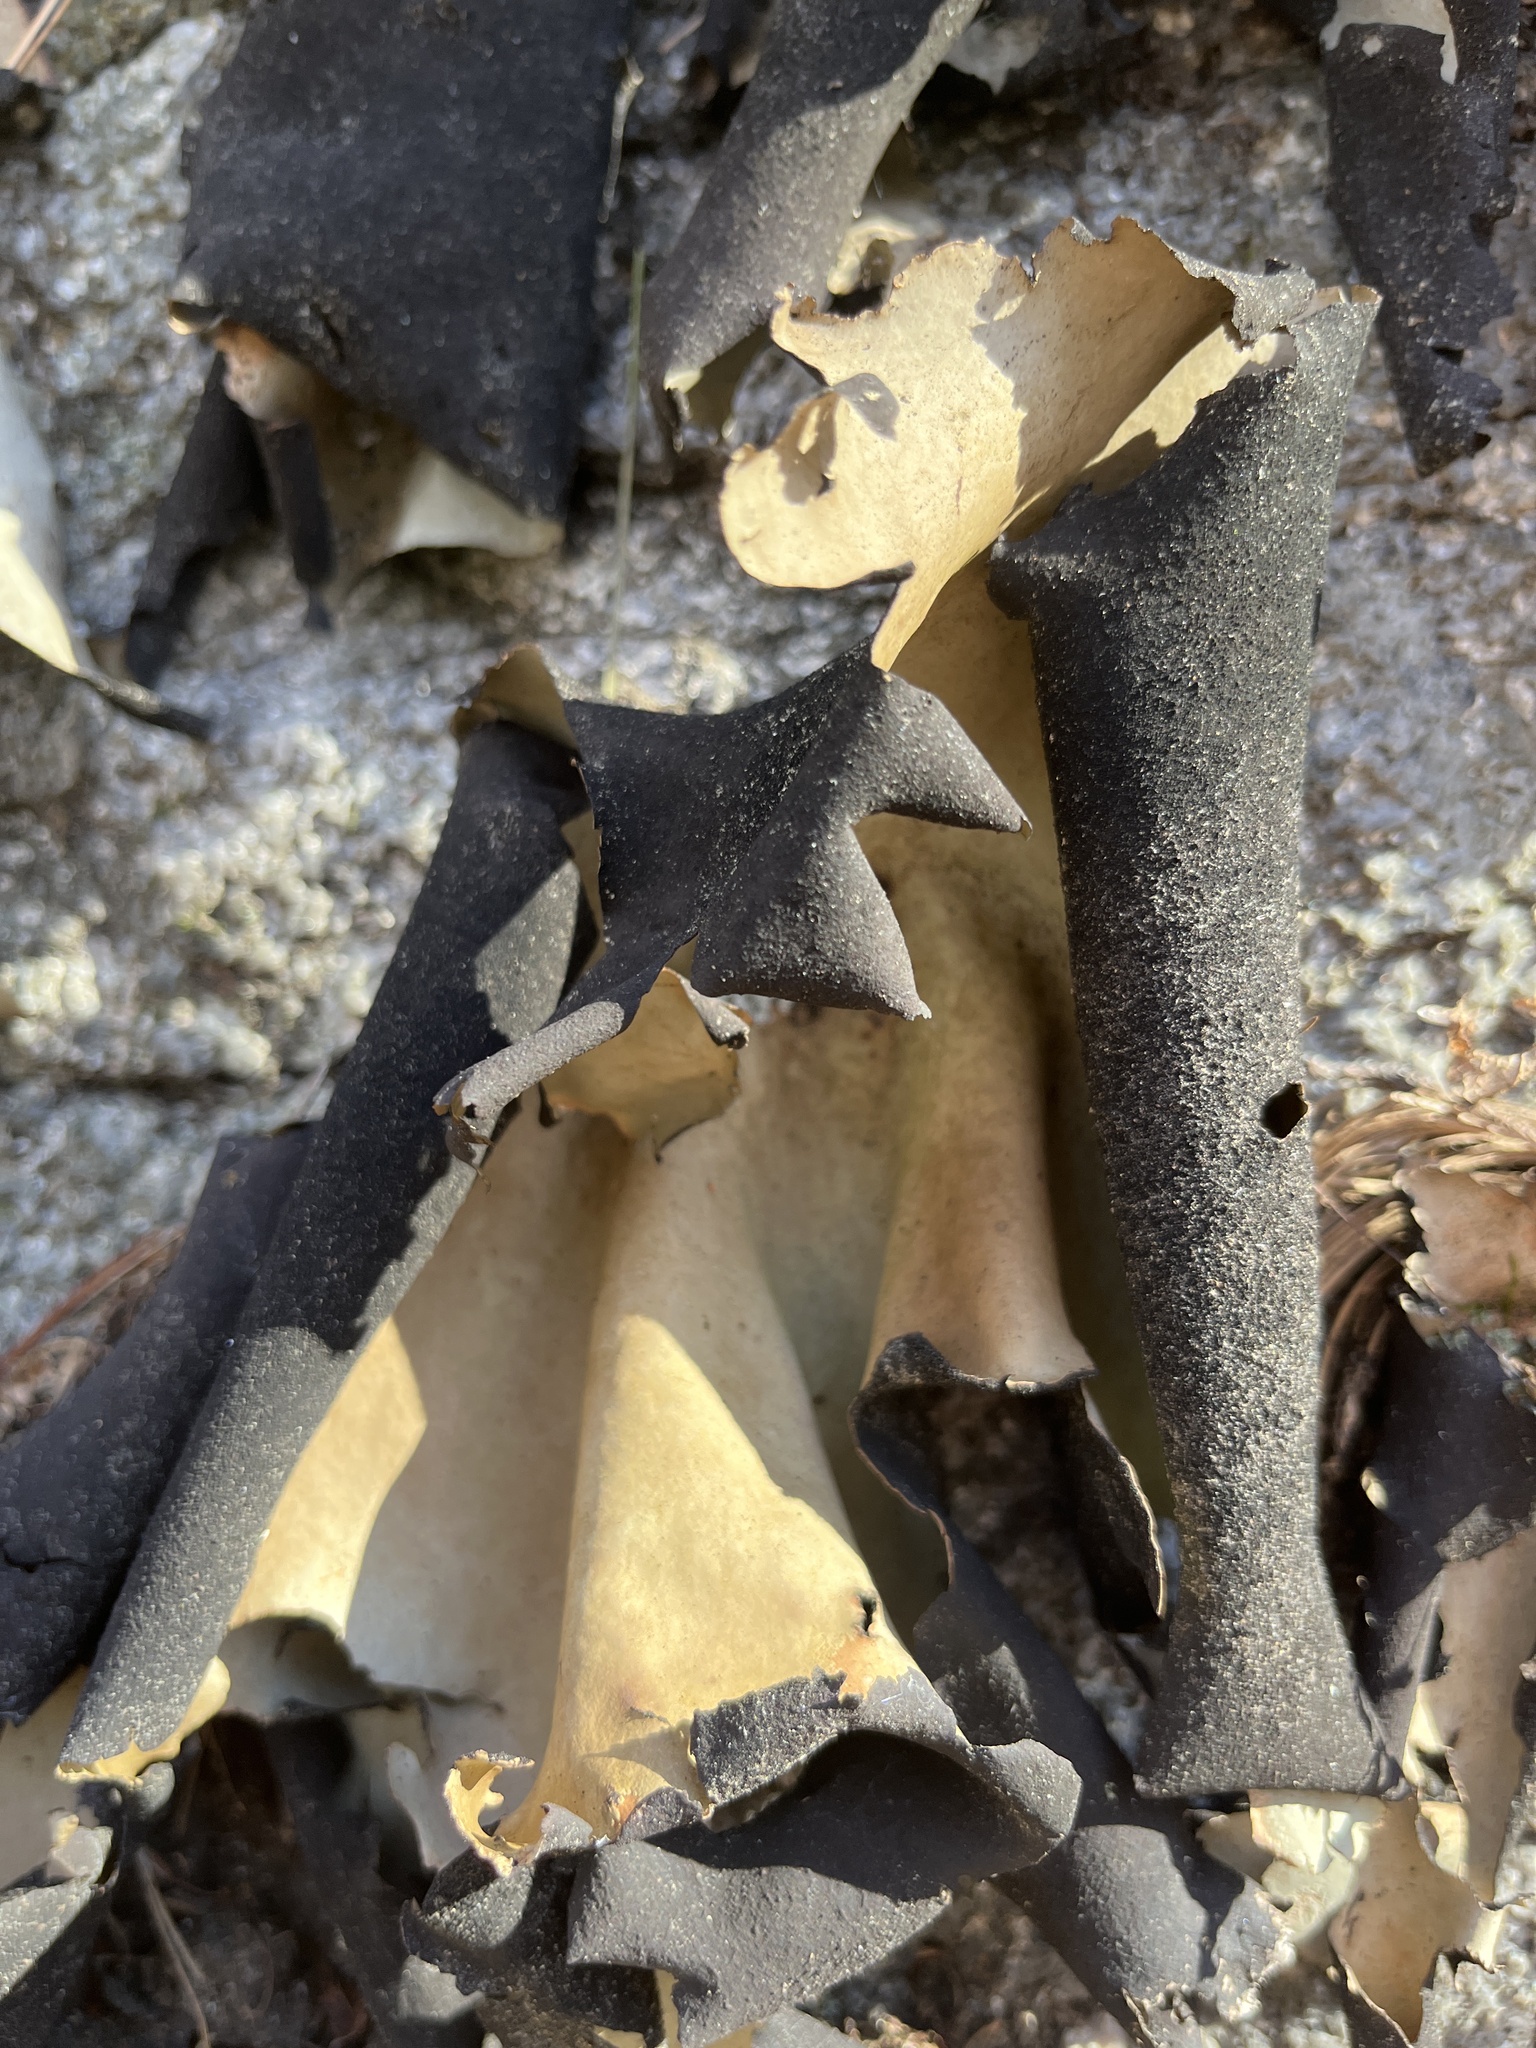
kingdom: Fungi
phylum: Ascomycota
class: Lecanoromycetes
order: Umbilicariales
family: Umbilicariaceae
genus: Umbilicaria
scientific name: Umbilicaria mammulata
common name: Smooth rock tripe
